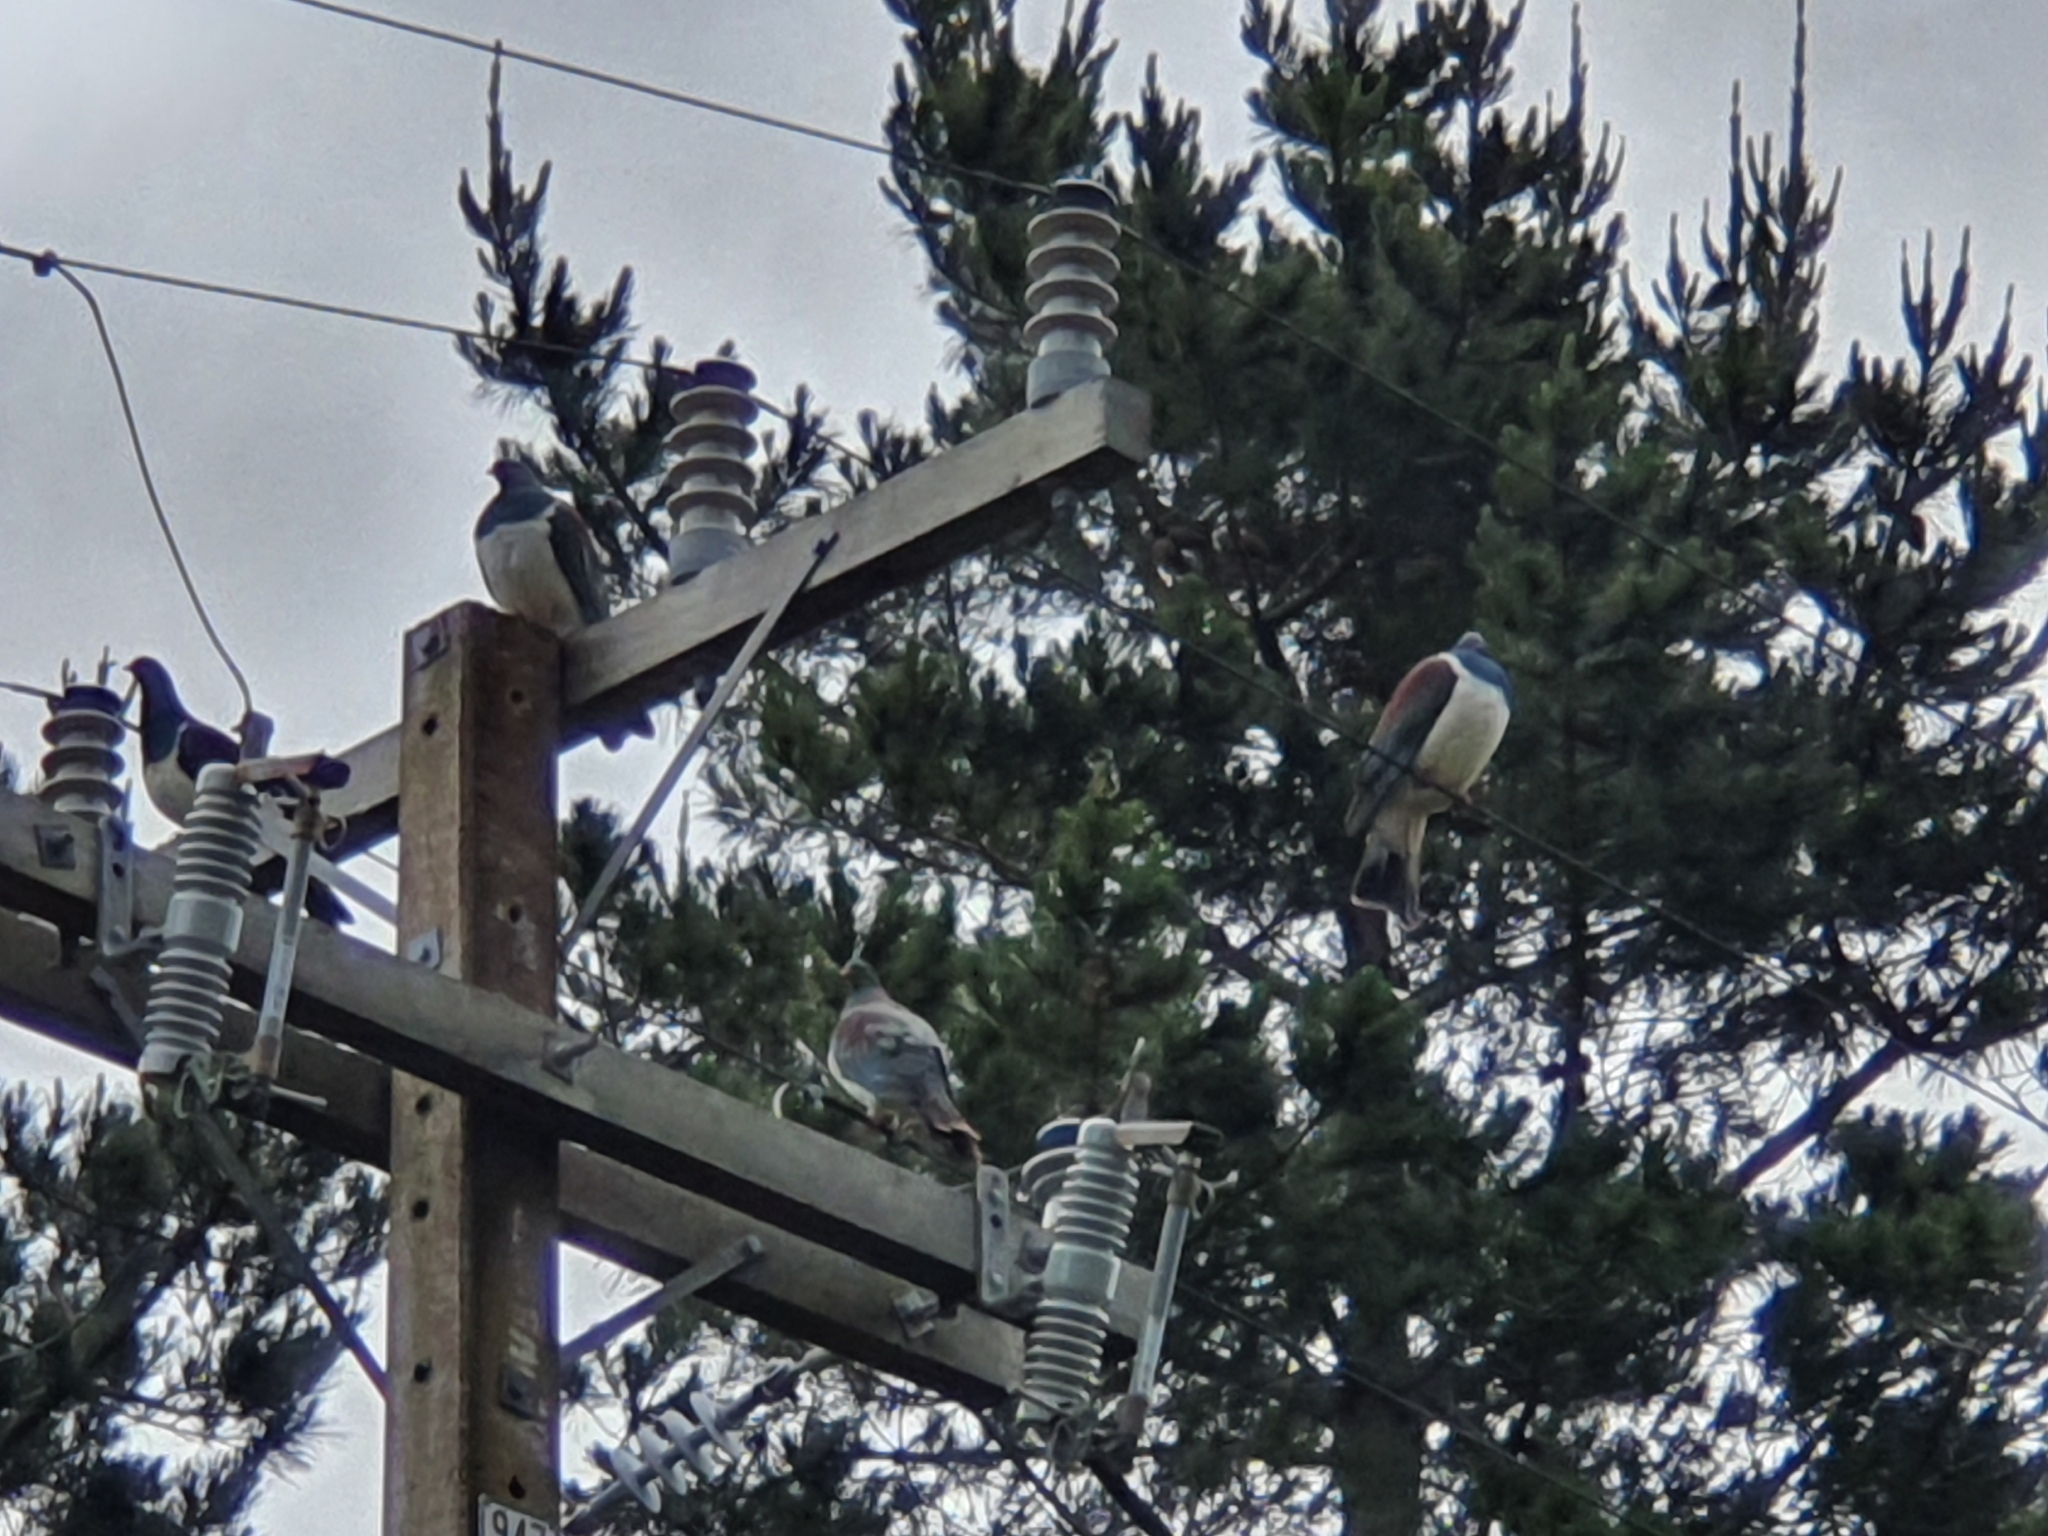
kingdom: Animalia
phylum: Chordata
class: Aves
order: Columbiformes
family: Columbidae
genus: Hemiphaga
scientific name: Hemiphaga novaeseelandiae
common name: New zealand pigeon
